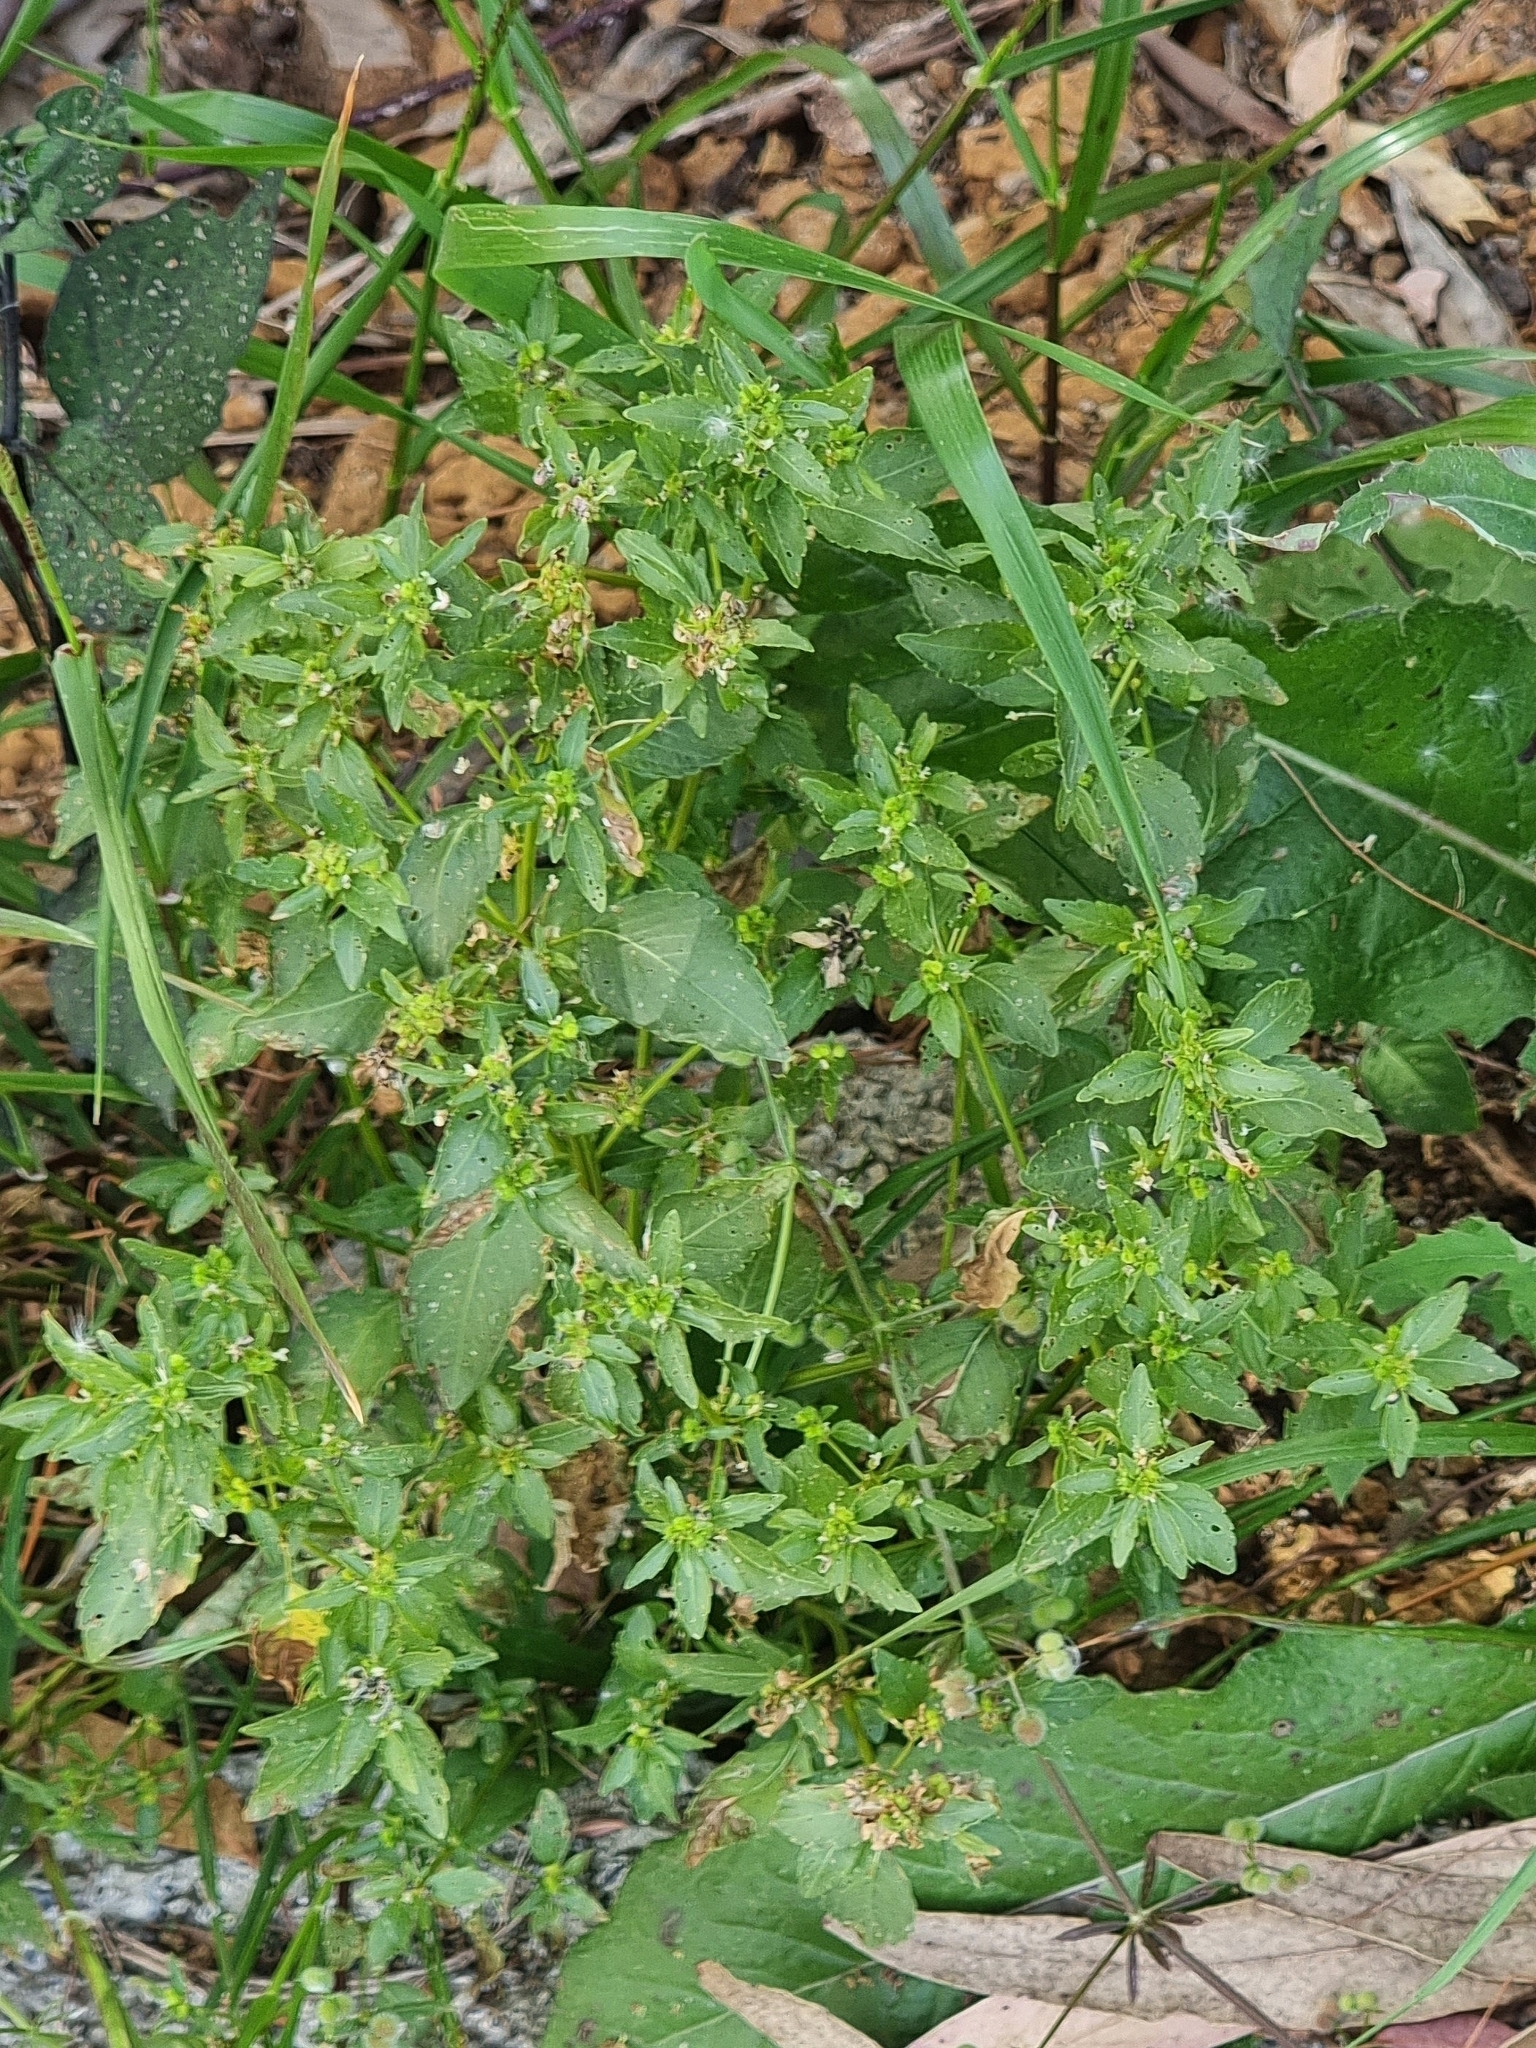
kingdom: Plantae
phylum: Tracheophyta
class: Magnoliopsida
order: Malpighiales
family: Euphorbiaceae
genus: Mercurialis
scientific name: Mercurialis annua
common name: Annual mercury
